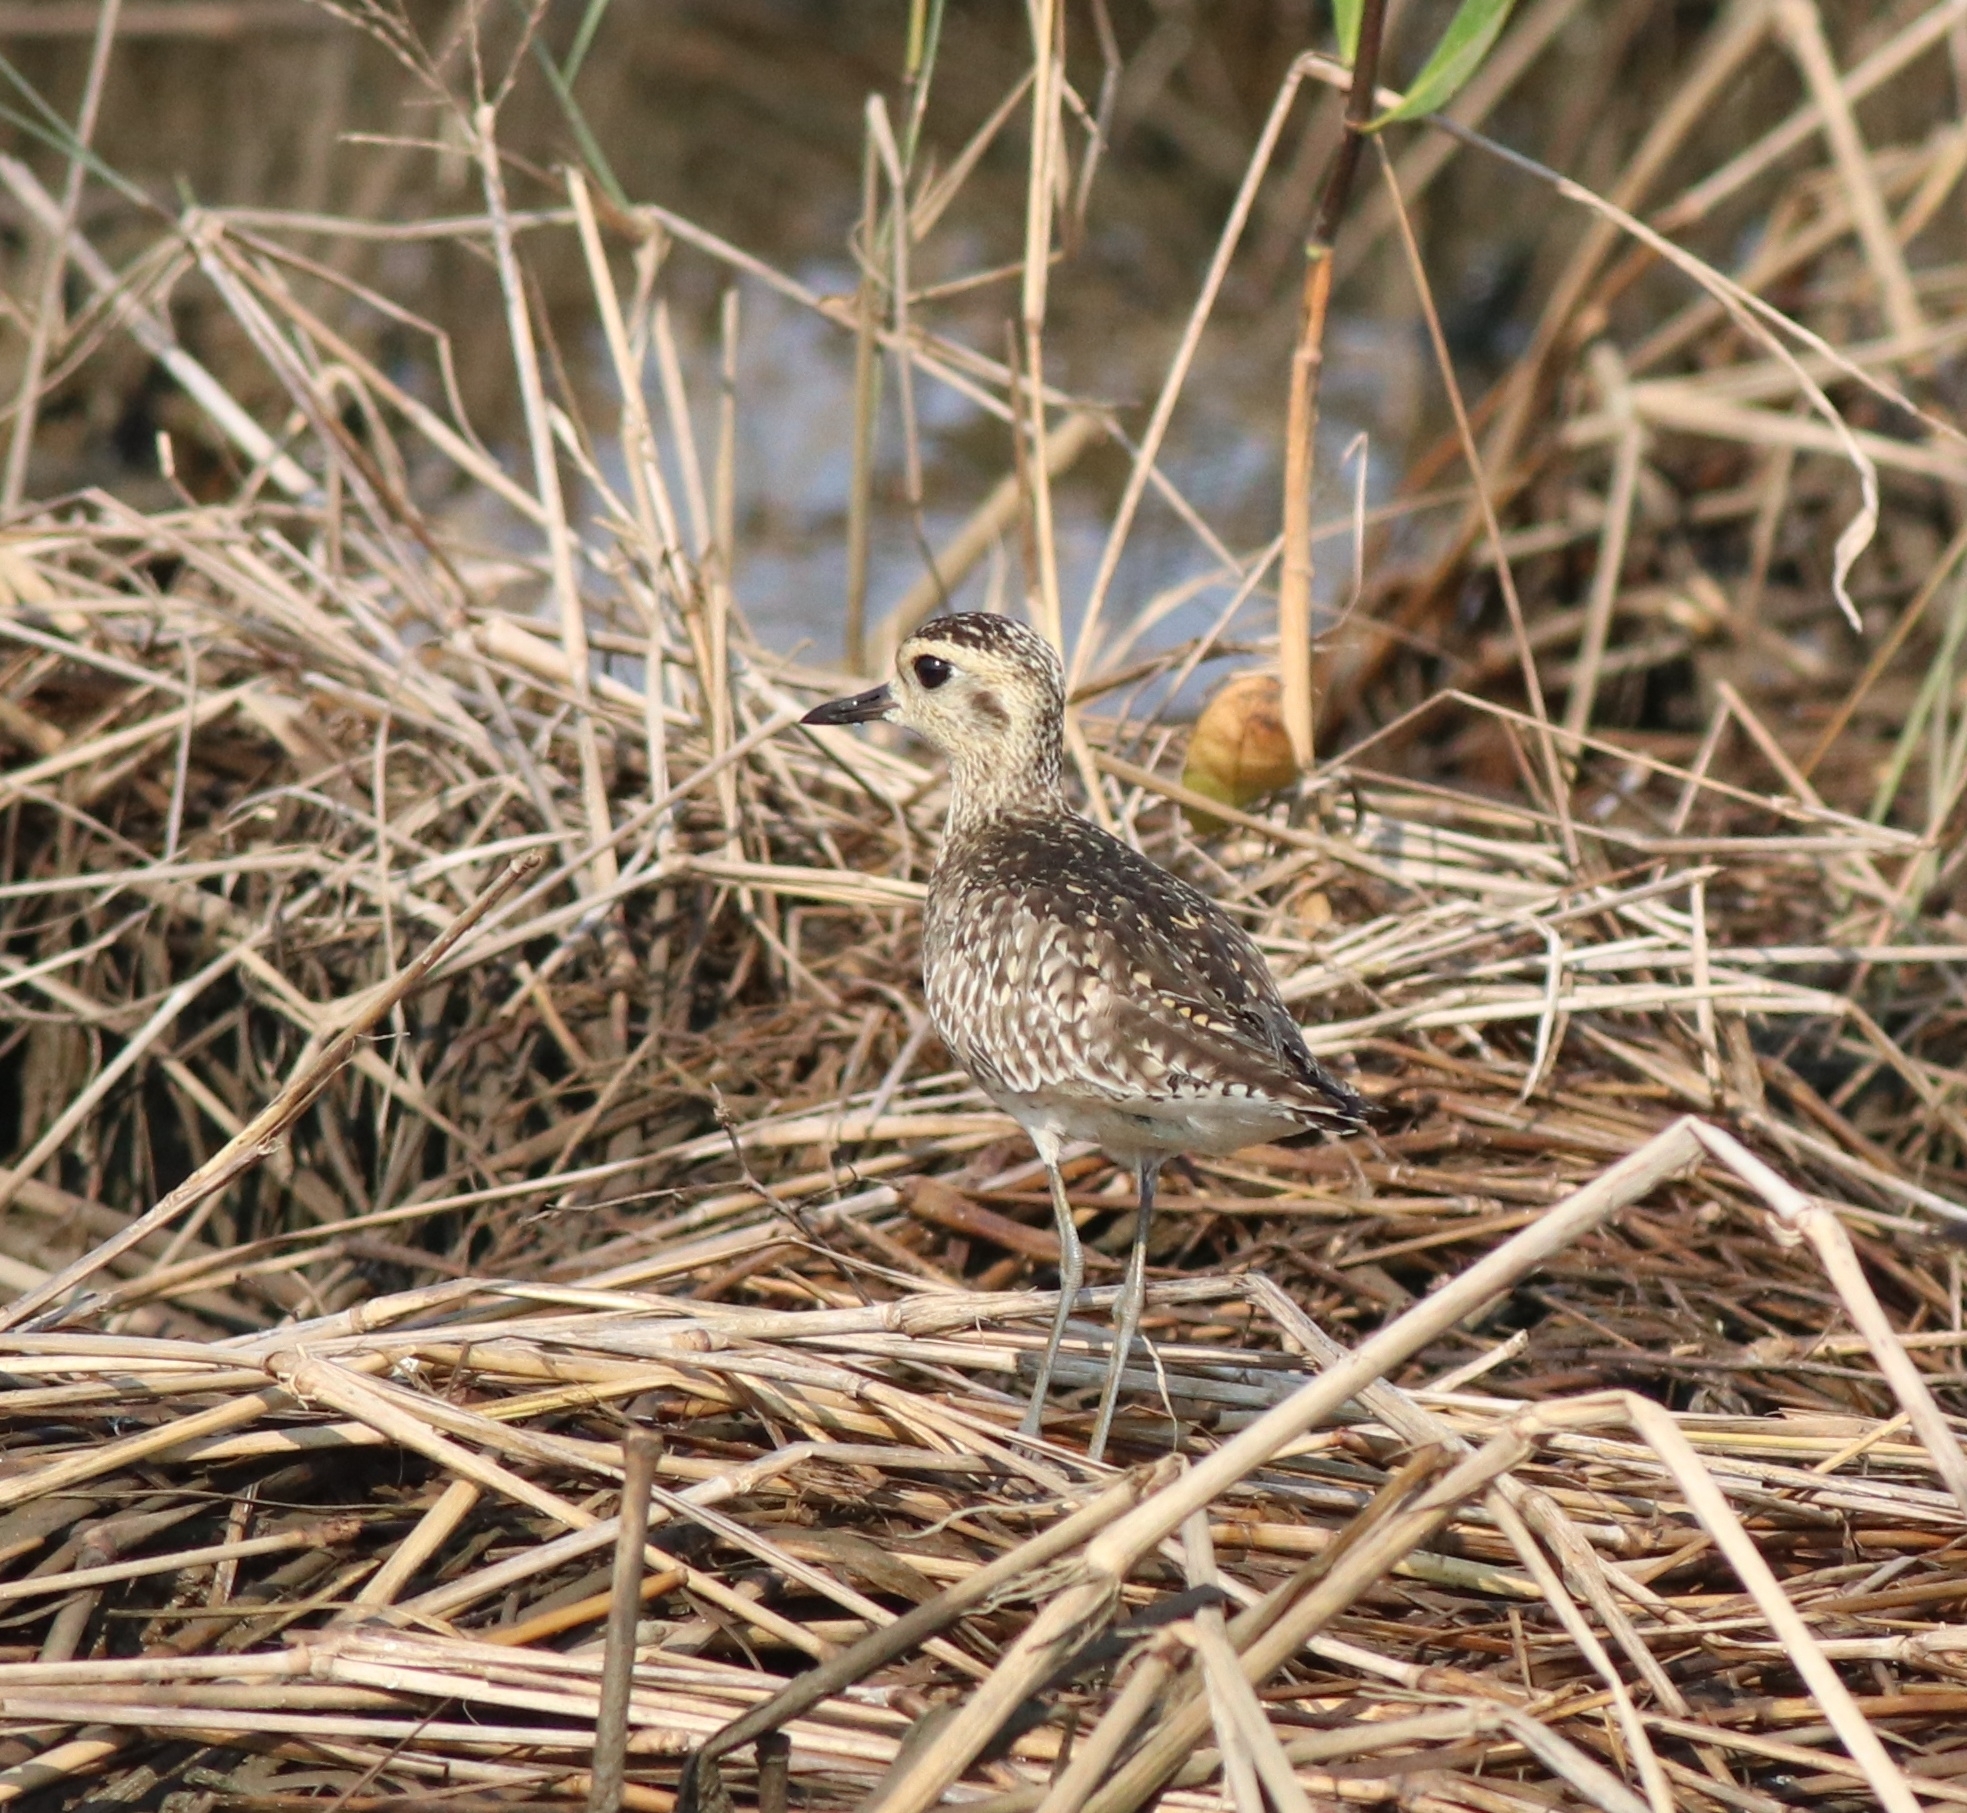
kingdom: Animalia
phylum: Chordata
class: Aves
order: Charadriiformes
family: Charadriidae
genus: Pluvialis
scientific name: Pluvialis fulva
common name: Pacific golden plover
